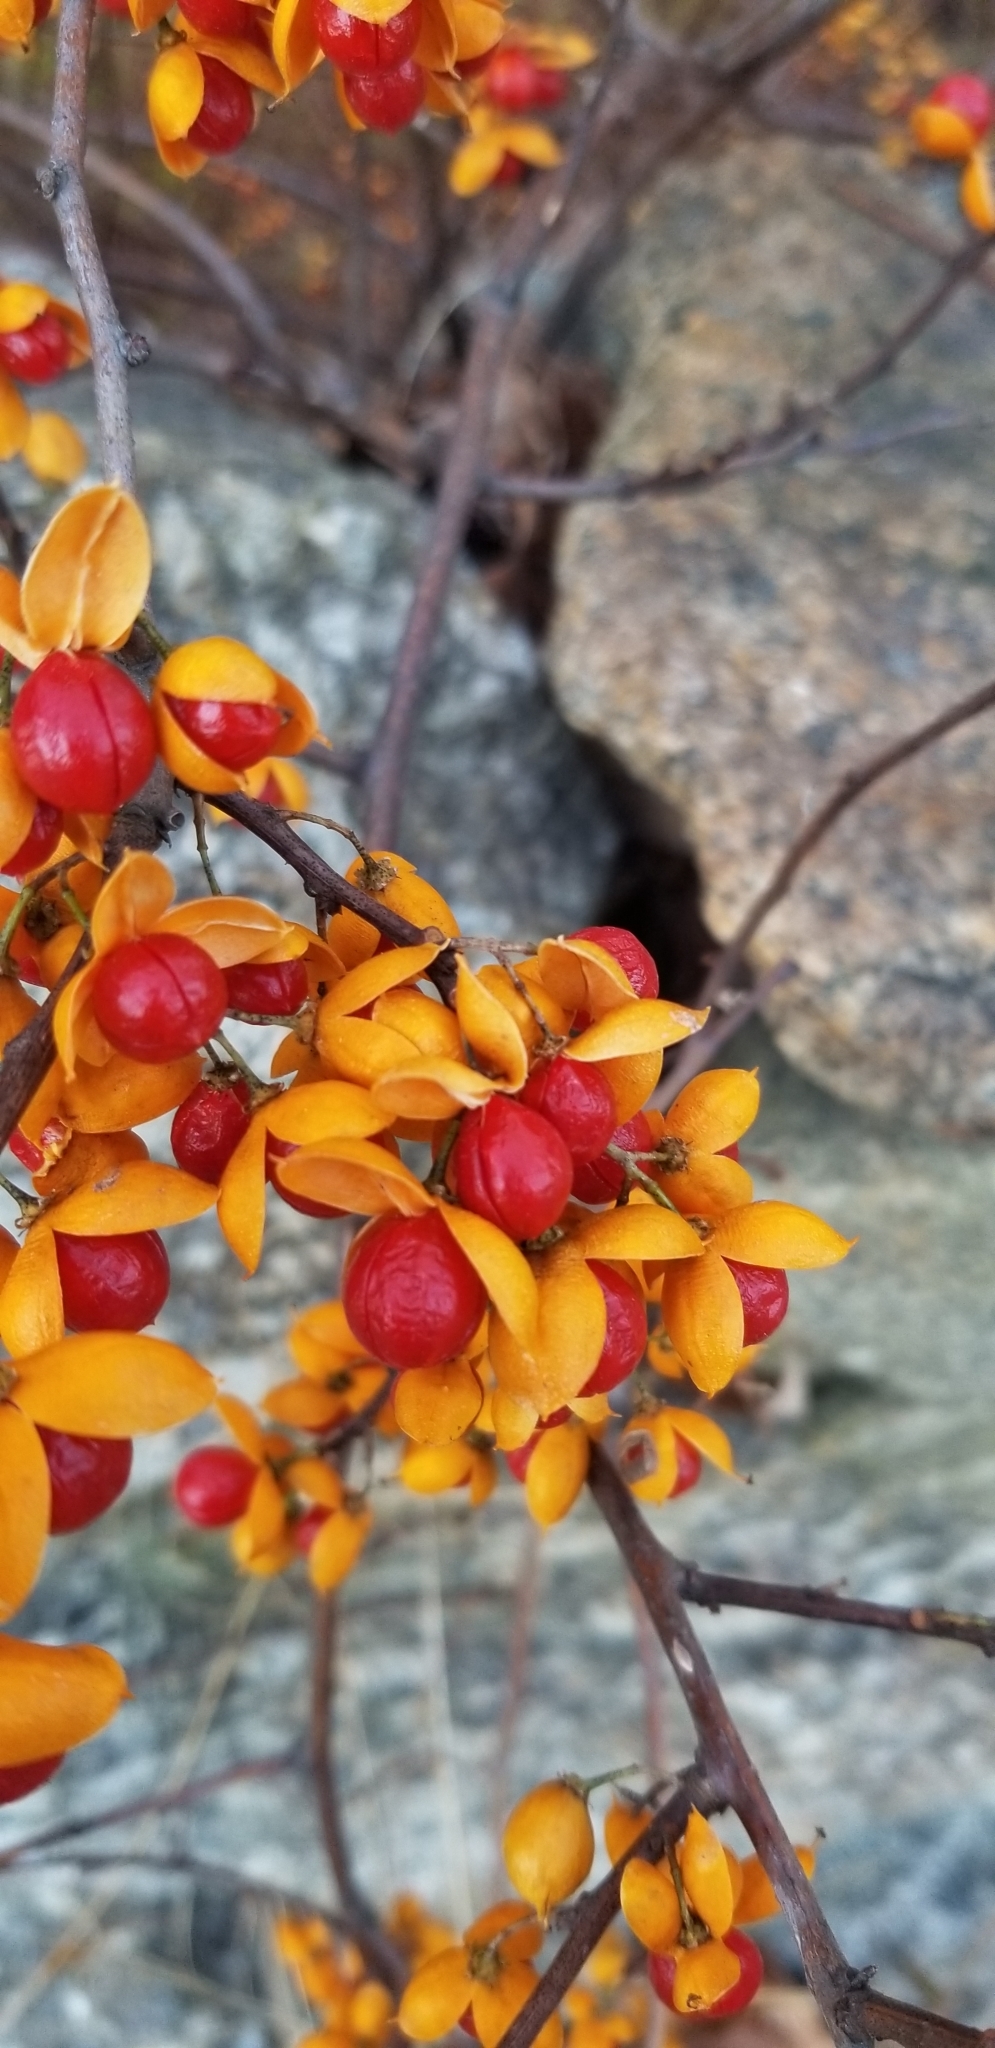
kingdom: Plantae
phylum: Tracheophyta
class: Magnoliopsida
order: Celastrales
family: Celastraceae
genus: Celastrus
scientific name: Celastrus orbiculatus
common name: Oriental bittersweet
